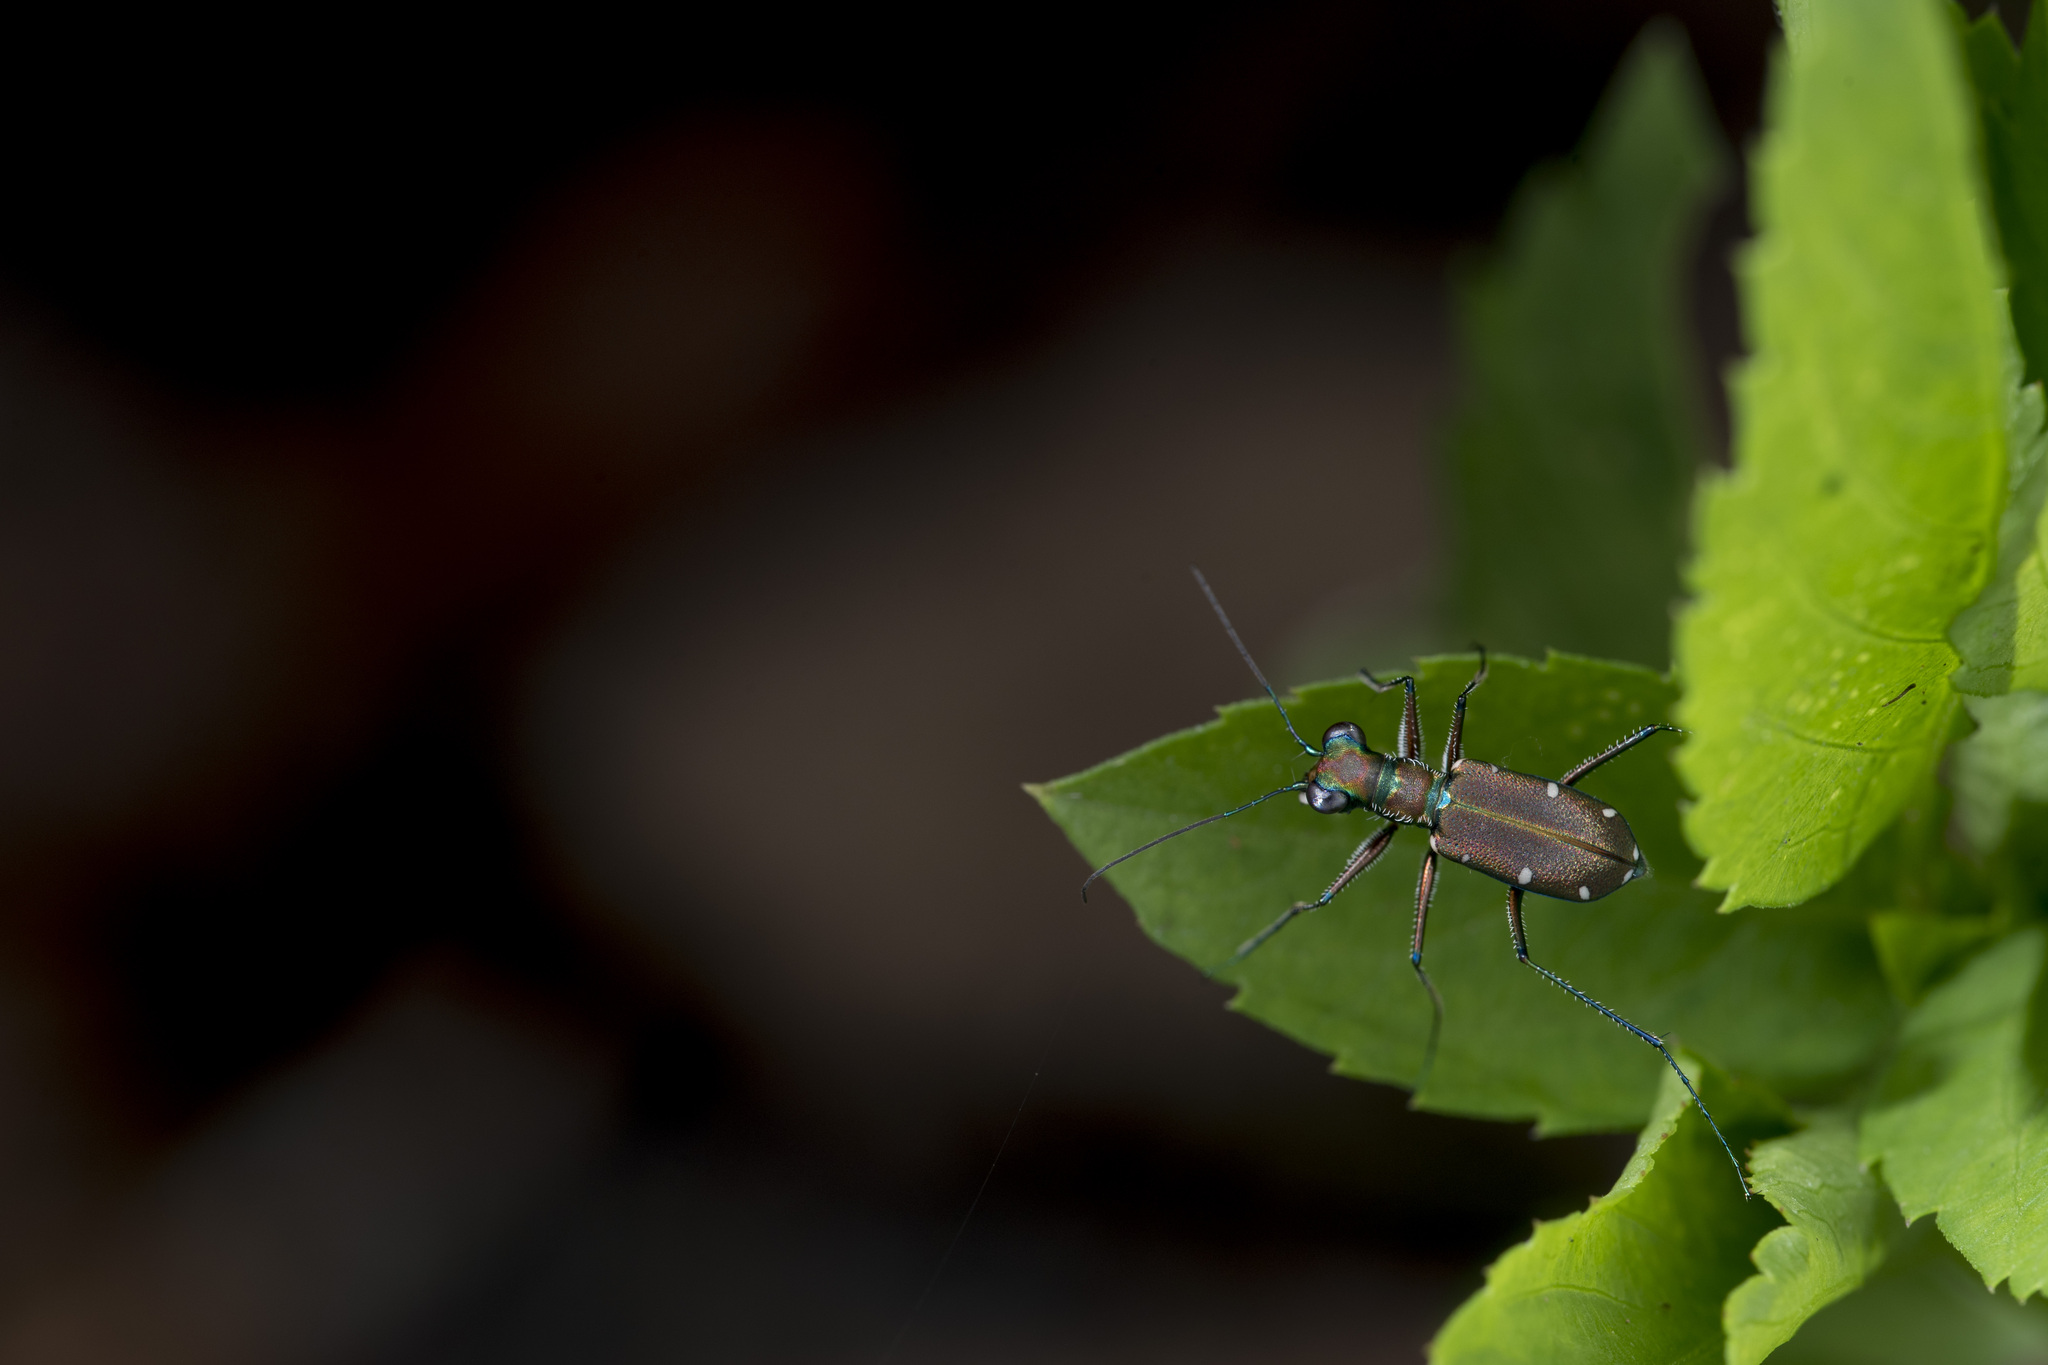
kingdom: Animalia
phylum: Arthropoda
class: Insecta
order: Coleoptera
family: Carabidae
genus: Cylindera
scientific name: Cylindera psilica
